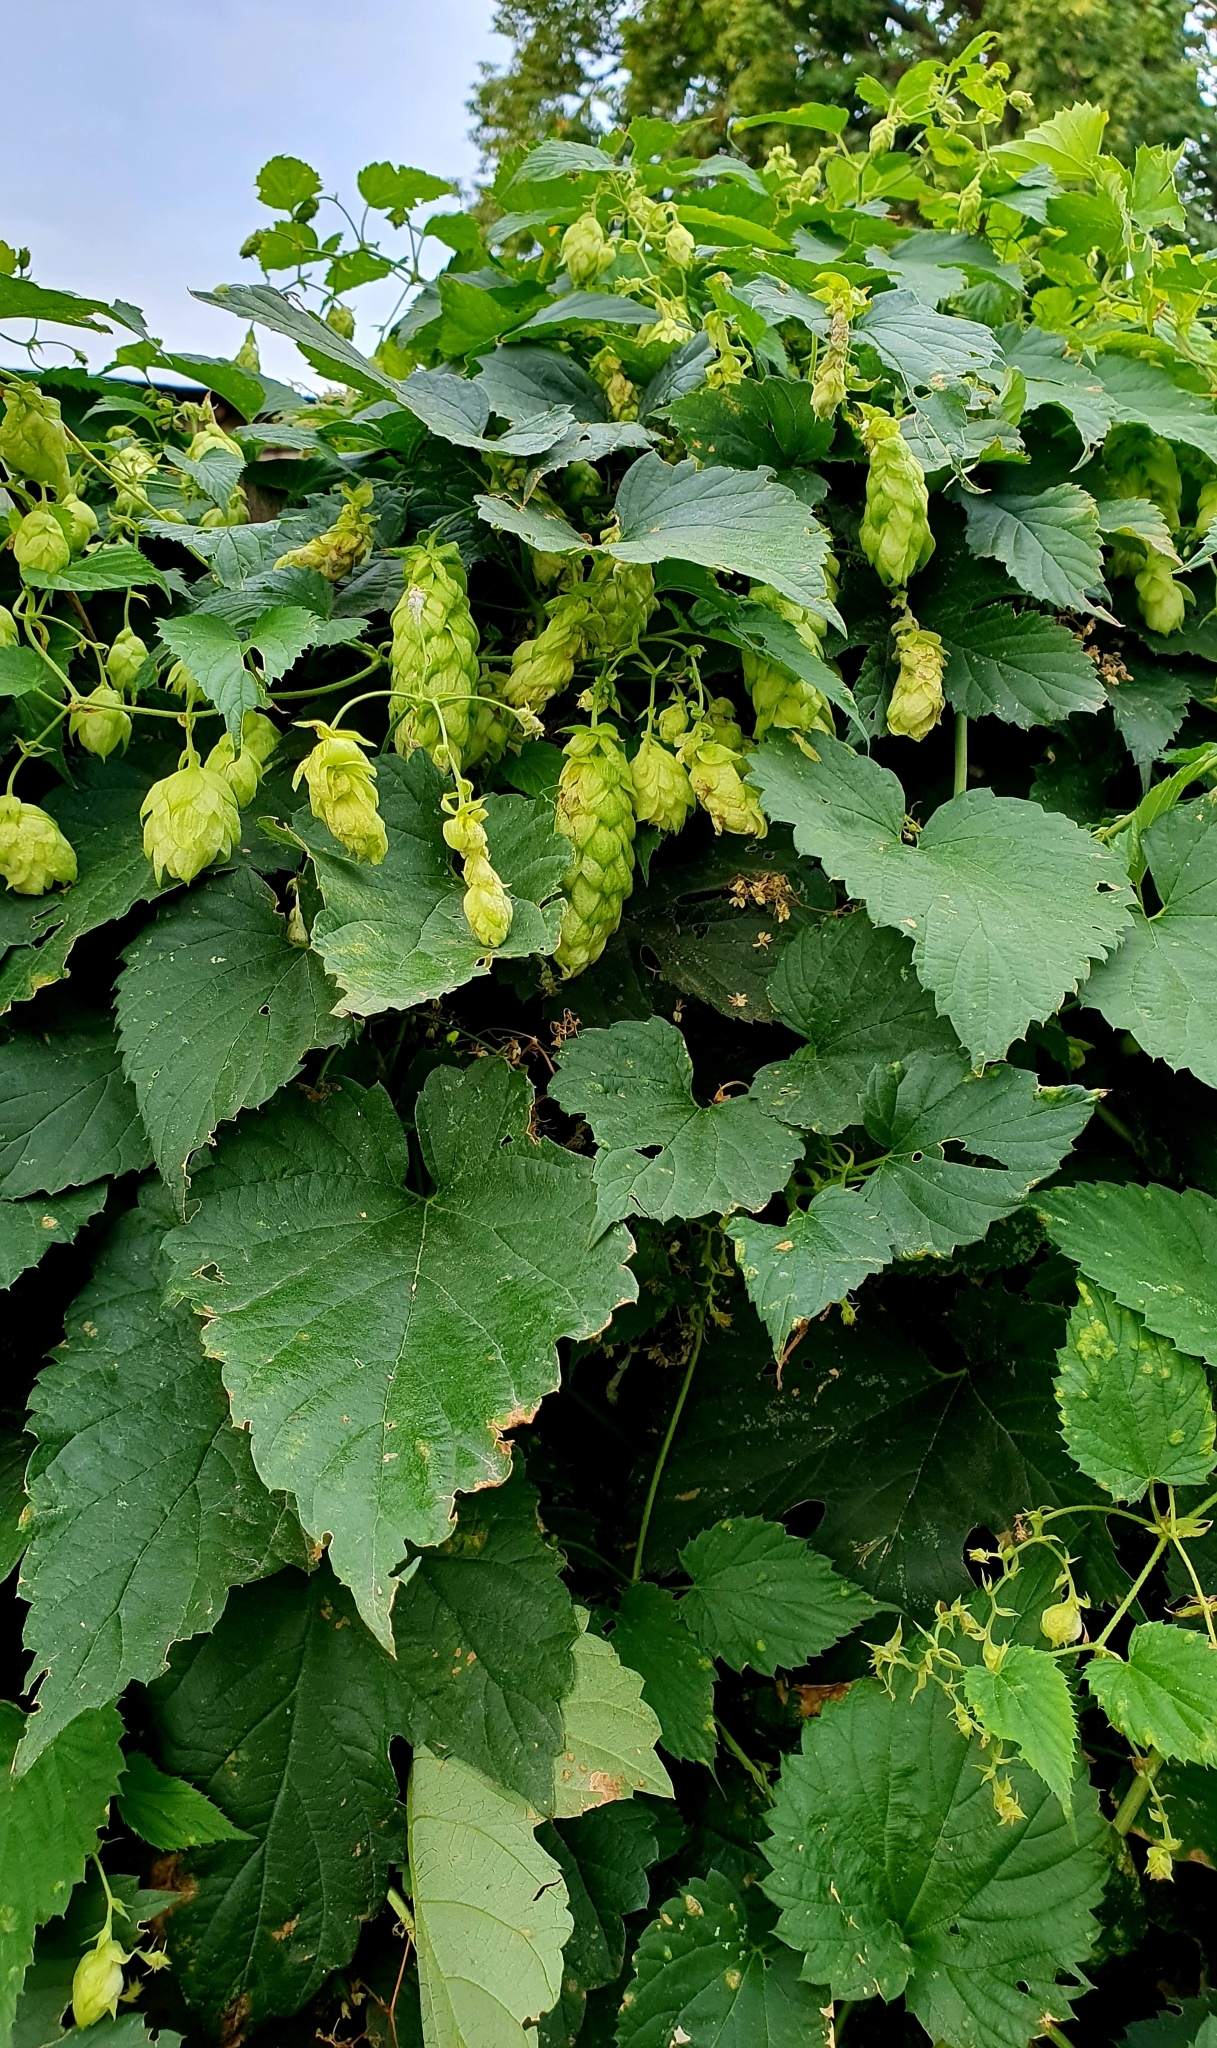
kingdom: Plantae
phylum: Tracheophyta
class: Magnoliopsida
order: Rosales
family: Cannabaceae
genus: Humulus
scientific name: Humulus lupulus
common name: Hop
